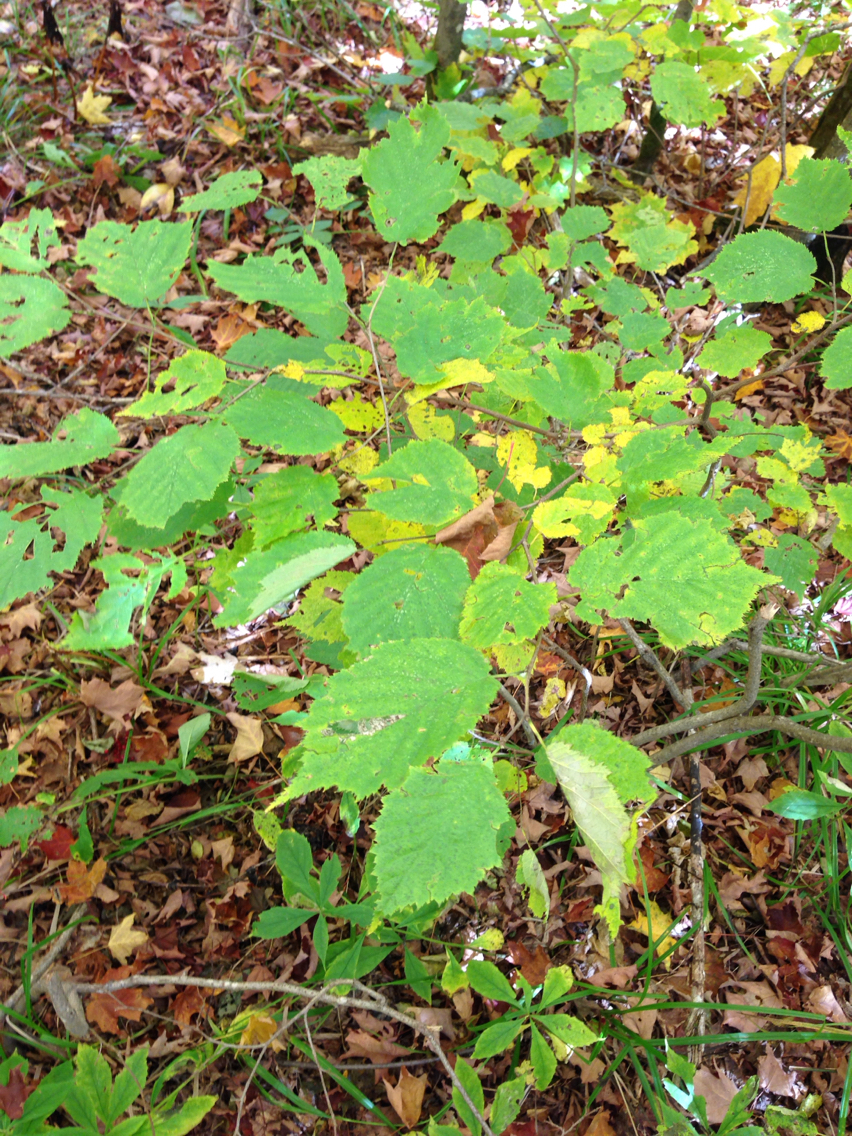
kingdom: Plantae
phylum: Tracheophyta
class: Magnoliopsida
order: Fagales
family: Betulaceae
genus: Corylus
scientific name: Corylus cornuta
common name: Beaked hazel
